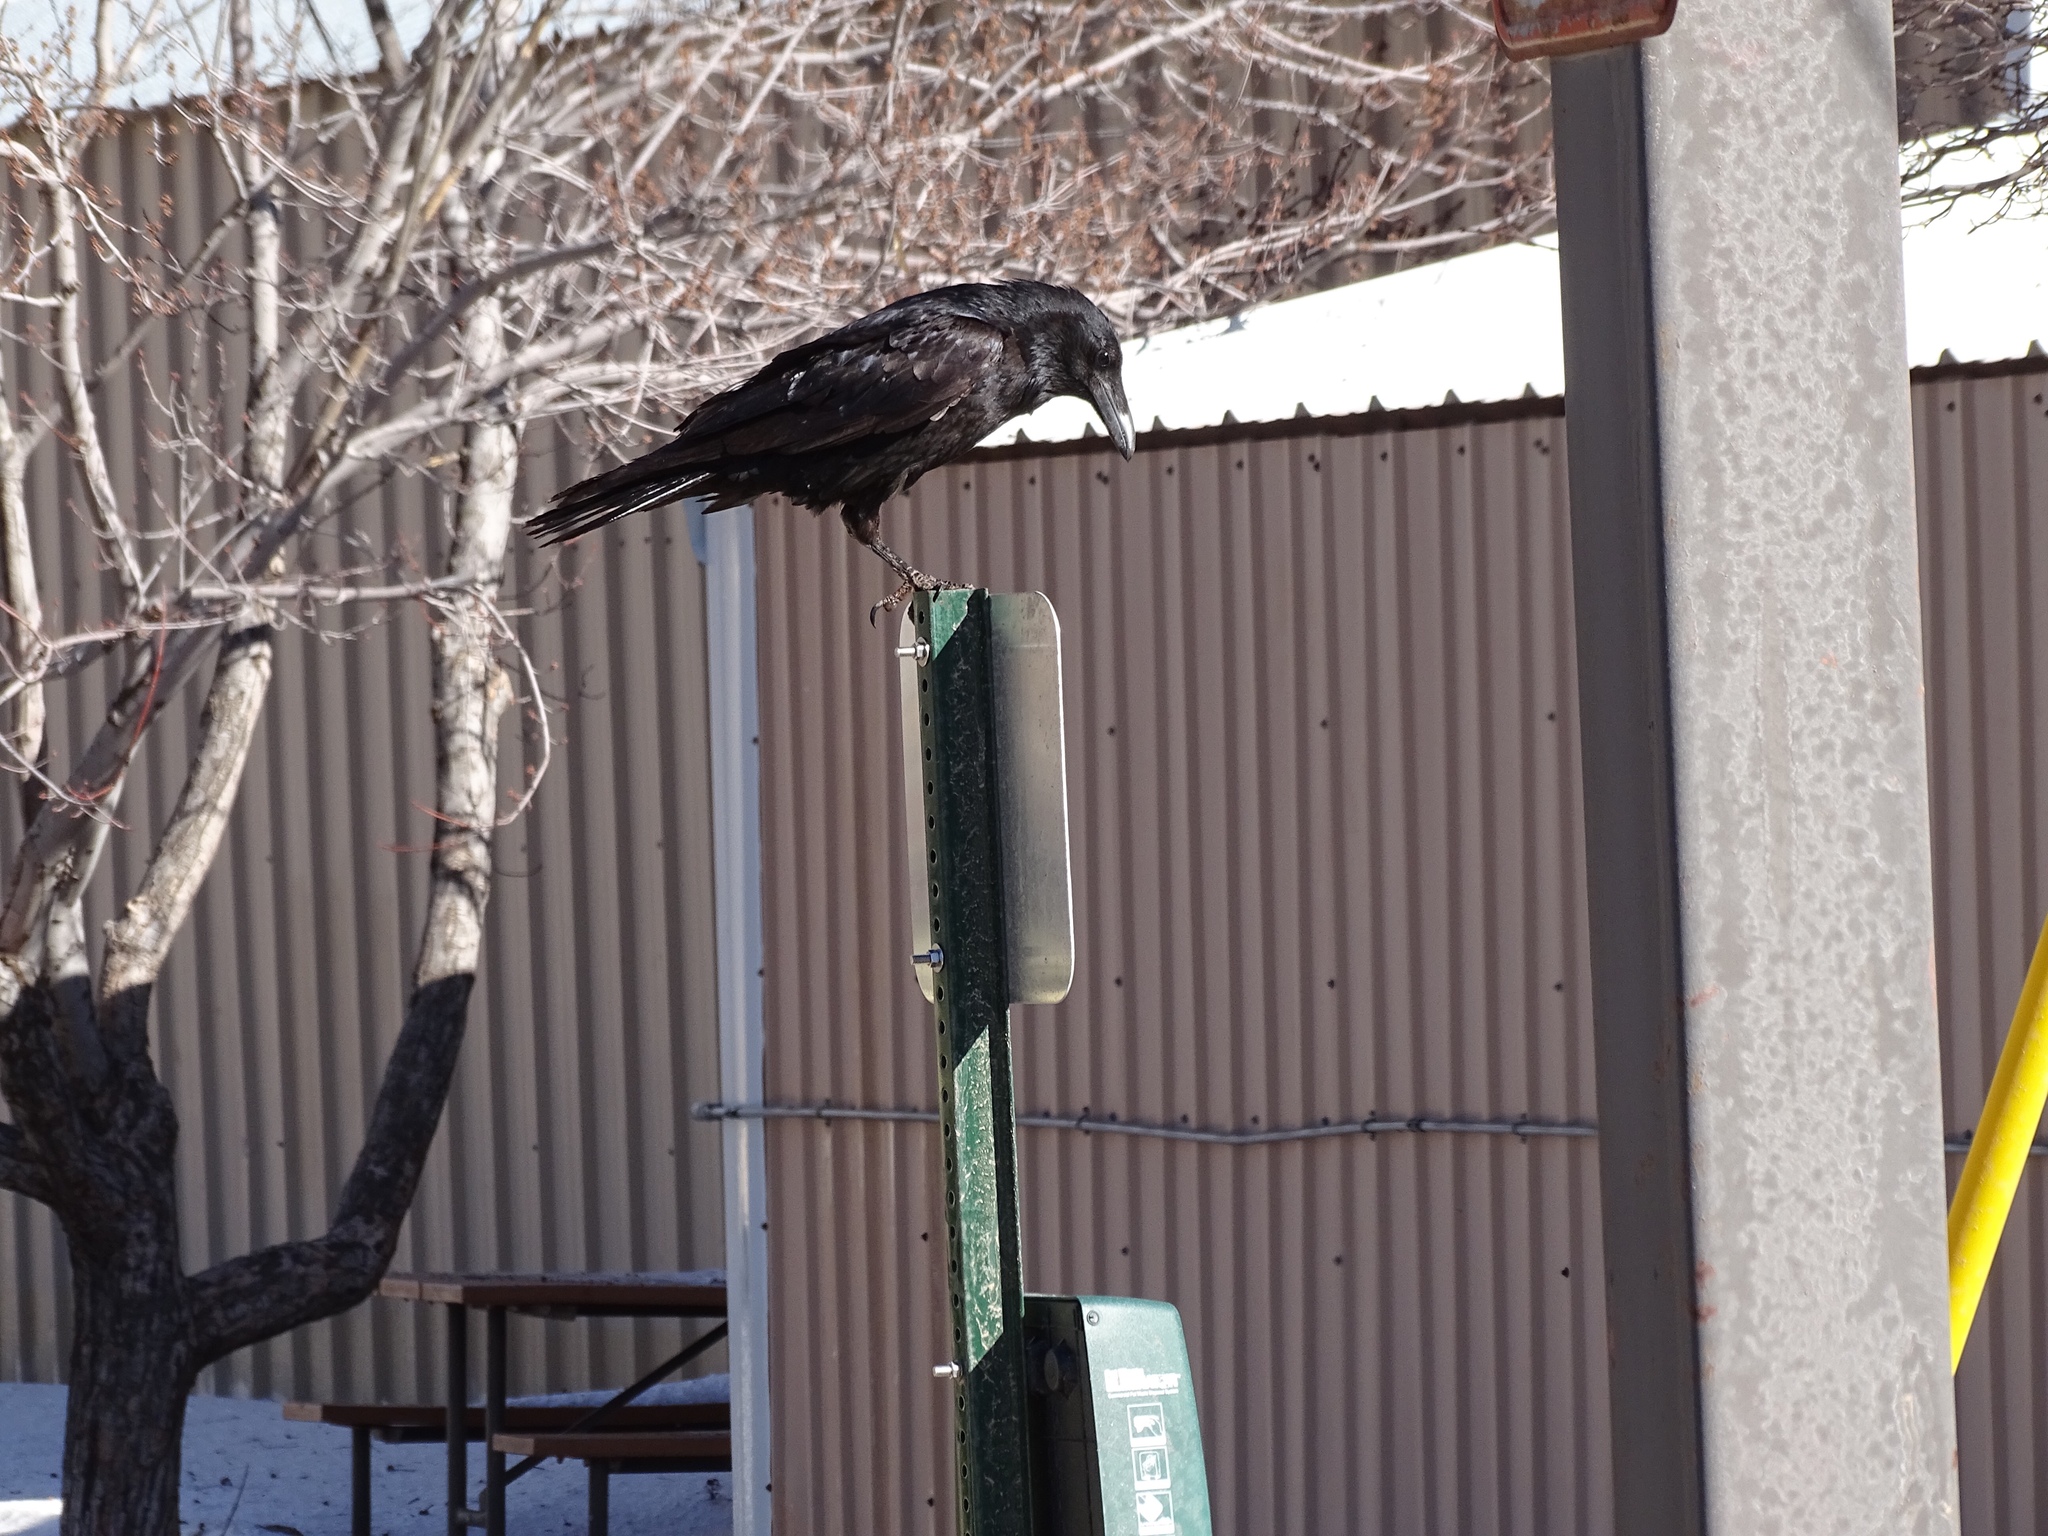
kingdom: Animalia
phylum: Chordata
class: Aves
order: Passeriformes
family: Corvidae
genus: Corvus
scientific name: Corvus corax
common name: Common raven
